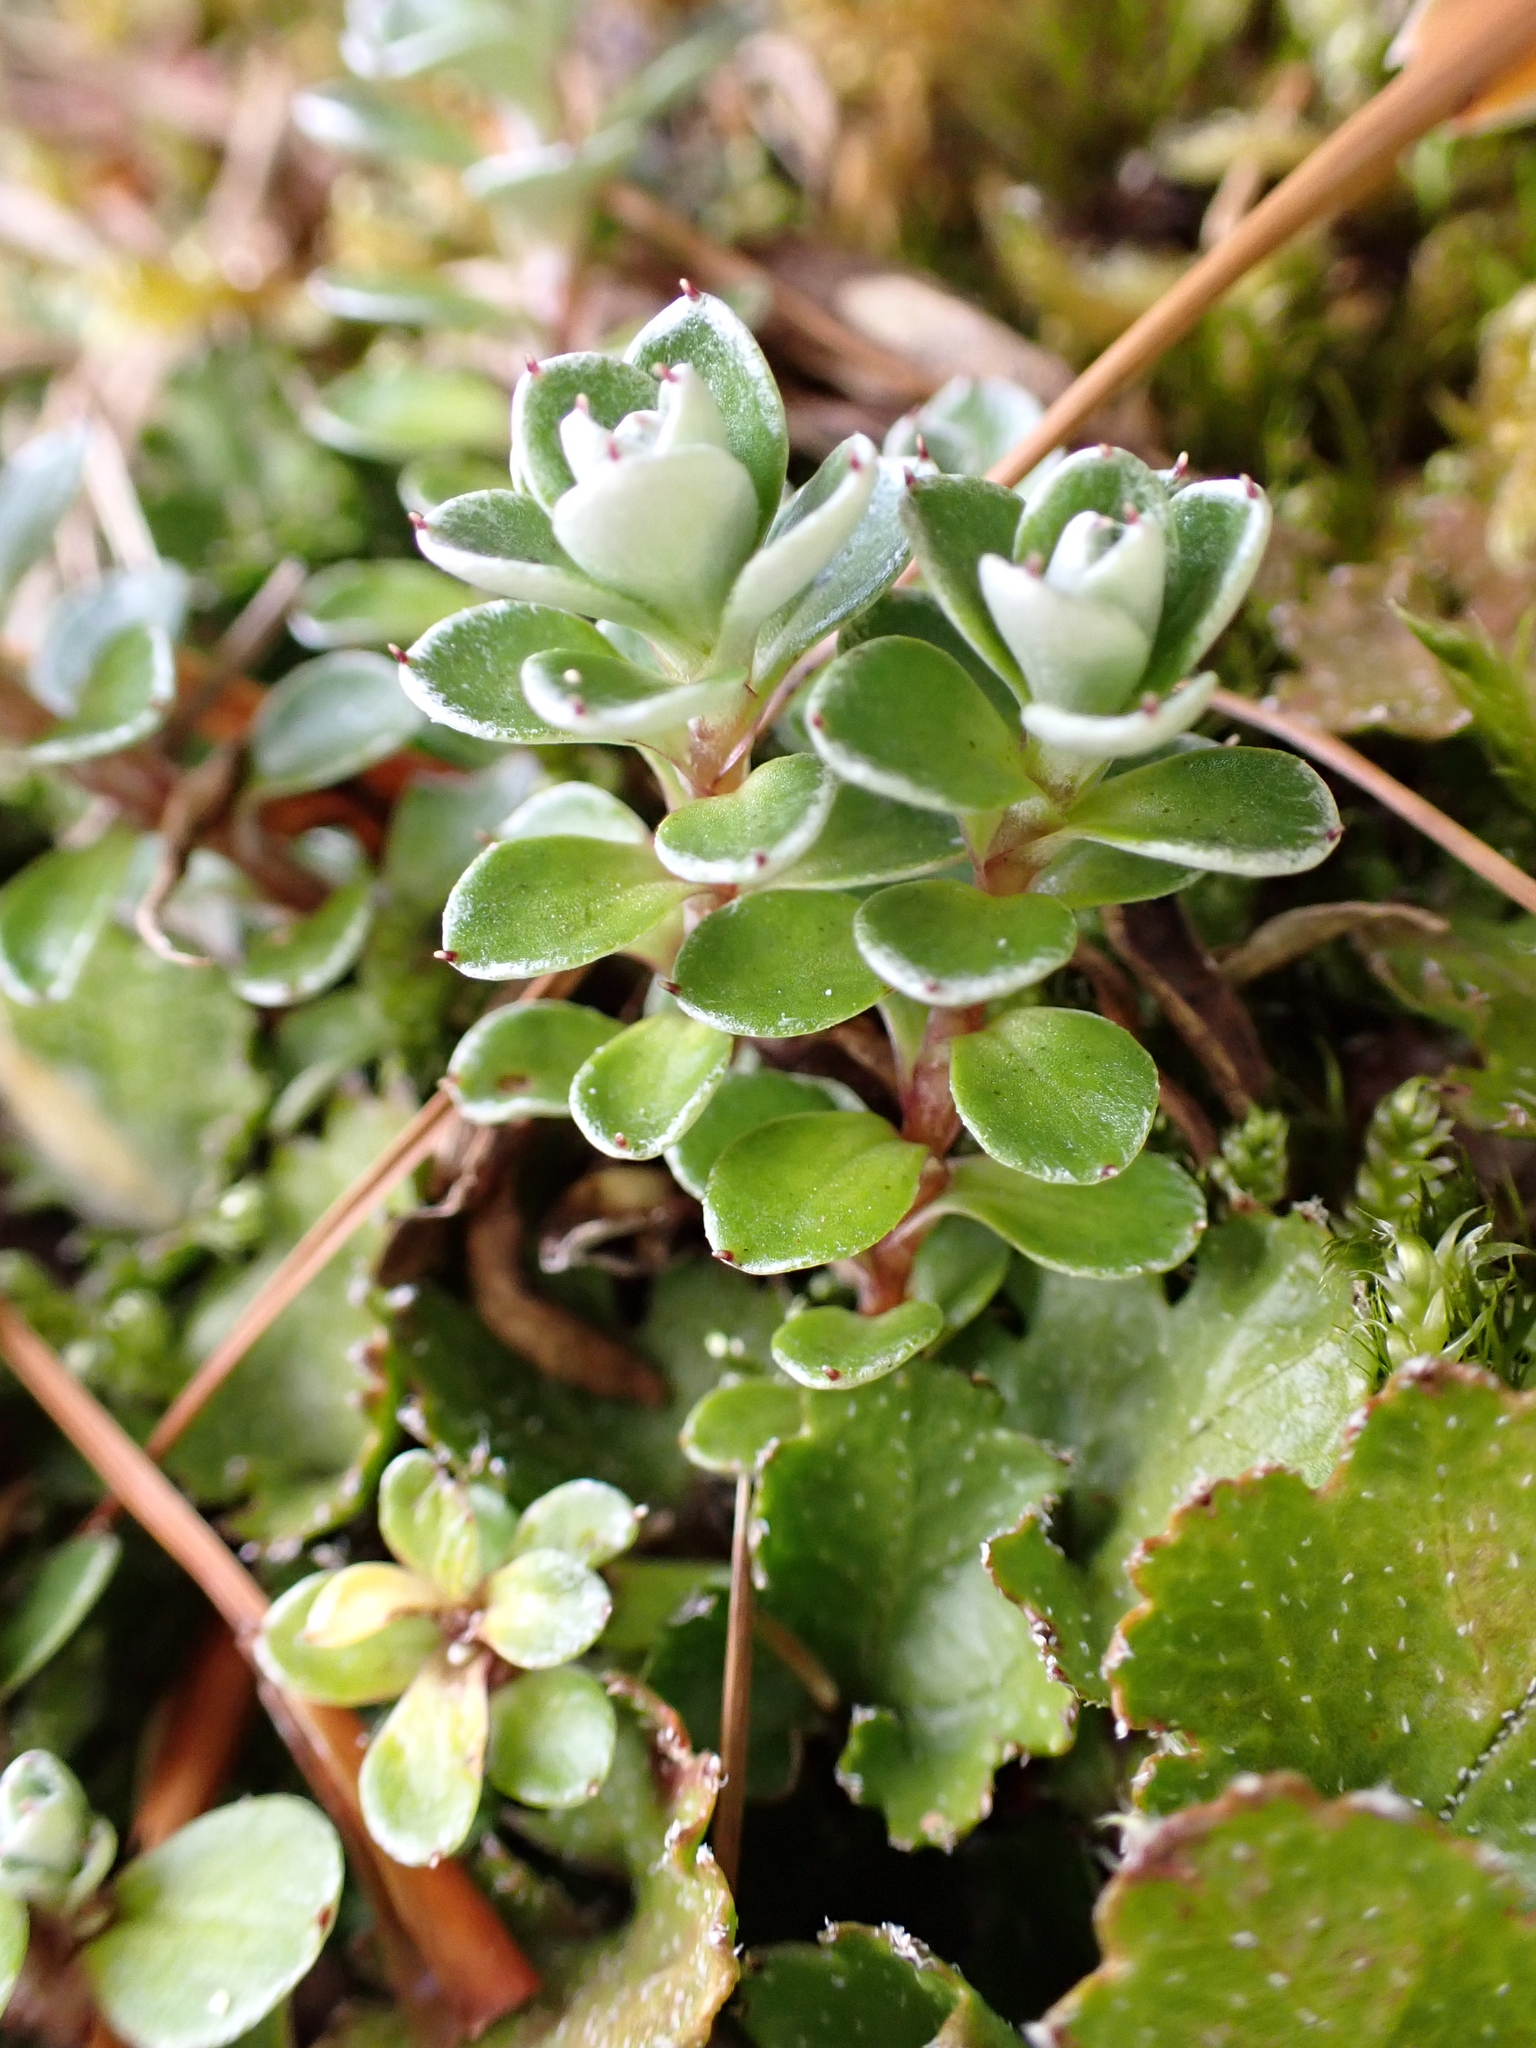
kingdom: Plantae
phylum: Tracheophyta
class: Magnoliopsida
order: Asterales
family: Asteraceae
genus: Anaphalioides
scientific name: Anaphalioides alpina
